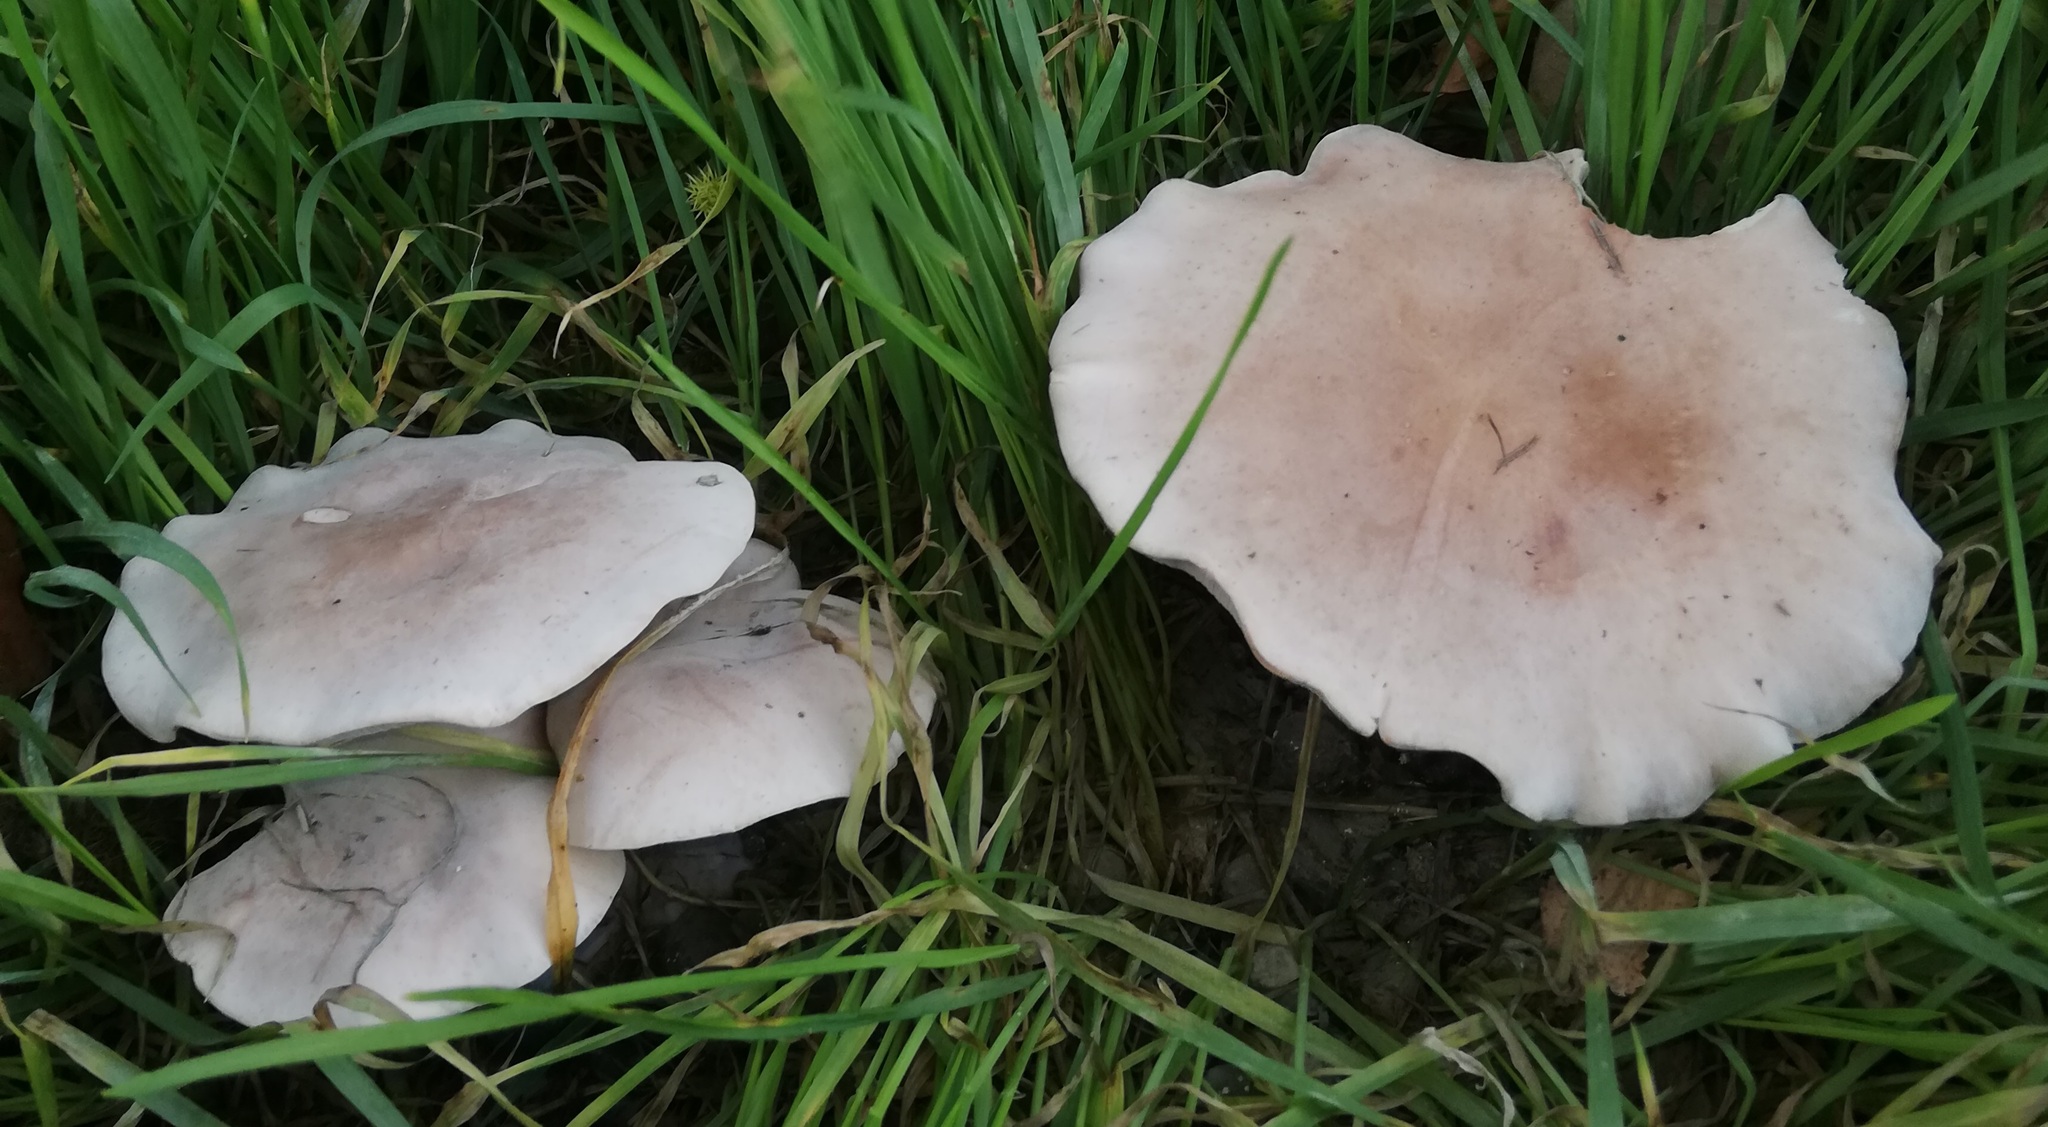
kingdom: Fungi
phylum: Basidiomycota
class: Agaricomycetes
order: Agaricales
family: Omphalotaceae
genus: Collybiopsis
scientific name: Collybiopsis peronata
